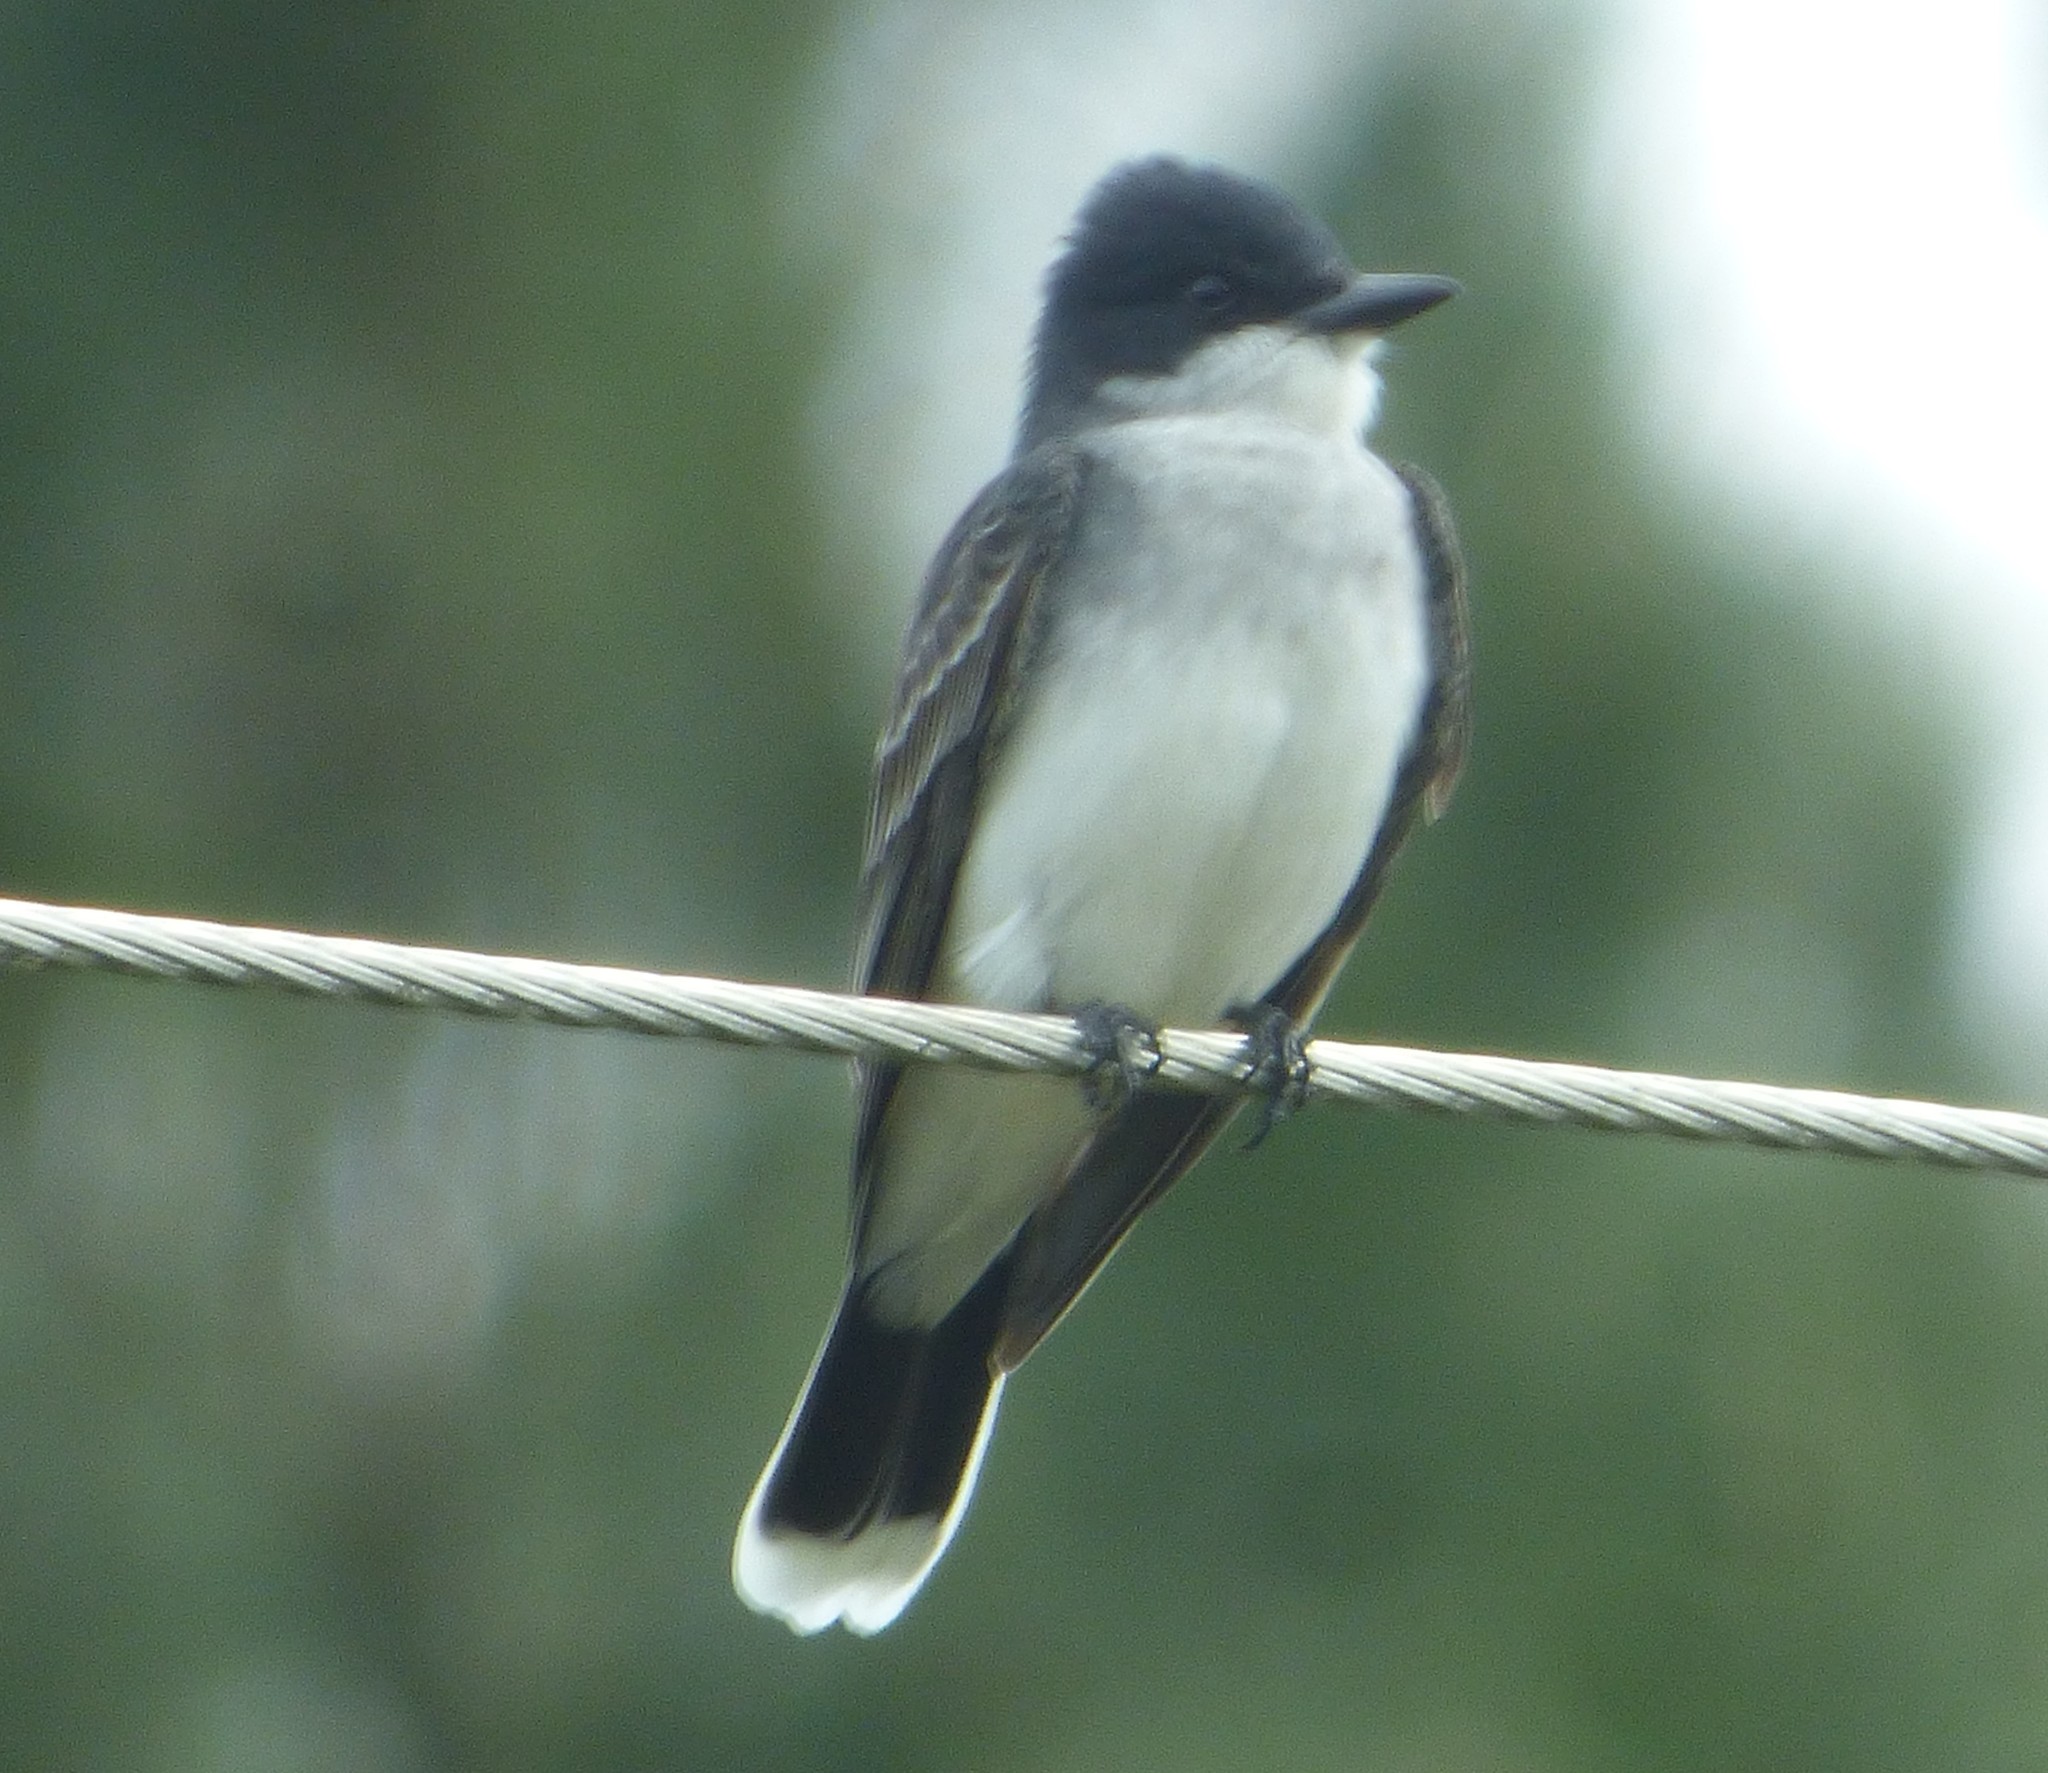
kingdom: Animalia
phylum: Chordata
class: Aves
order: Passeriformes
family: Tyrannidae
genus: Tyrannus
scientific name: Tyrannus tyrannus
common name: Eastern kingbird
